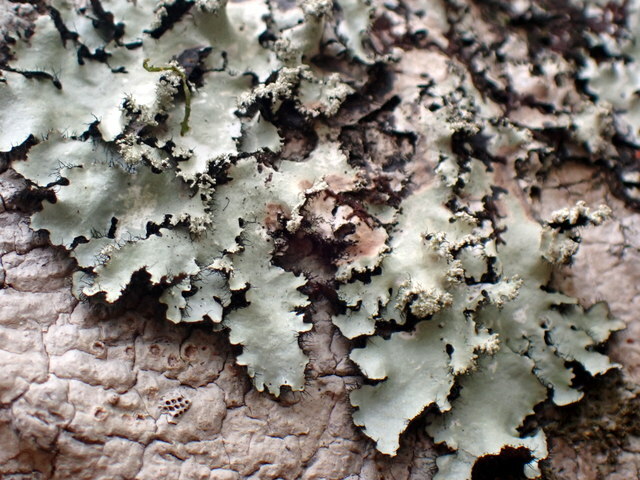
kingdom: Fungi
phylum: Ascomycota
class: Lecanoromycetes
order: Lecanorales
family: Parmeliaceae
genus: Parmotrema
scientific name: Parmotrema reticulatum
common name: Black sheet lichen
